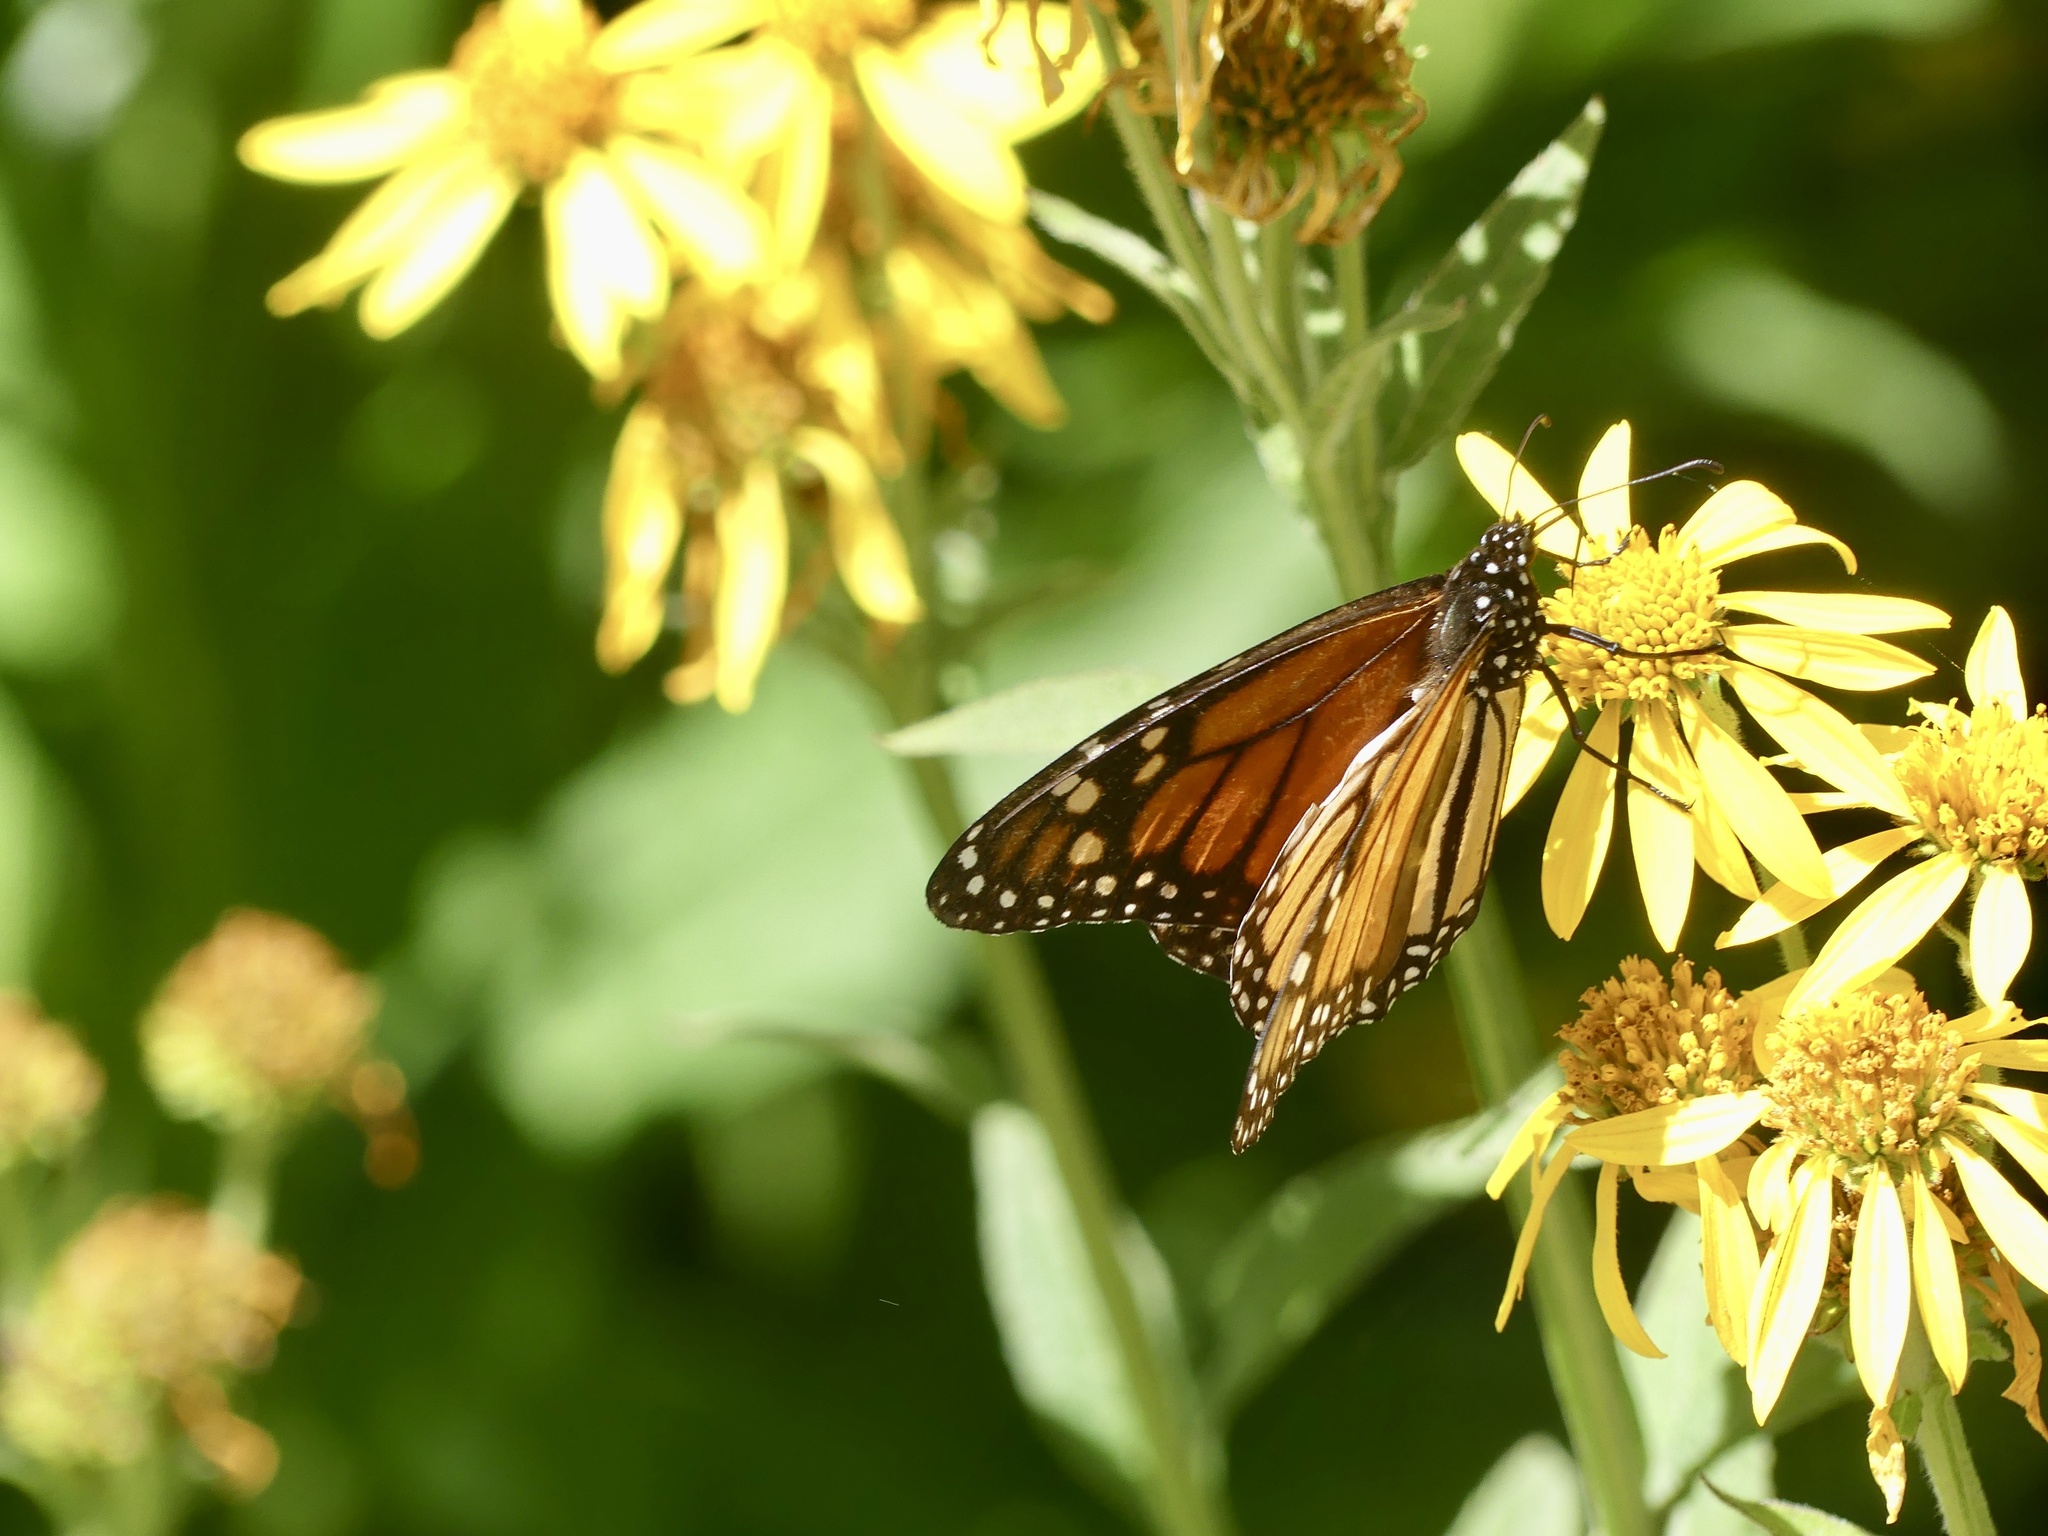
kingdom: Animalia
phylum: Arthropoda
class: Insecta
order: Lepidoptera
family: Nymphalidae
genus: Danaus
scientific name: Danaus plexippus
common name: Monarch
